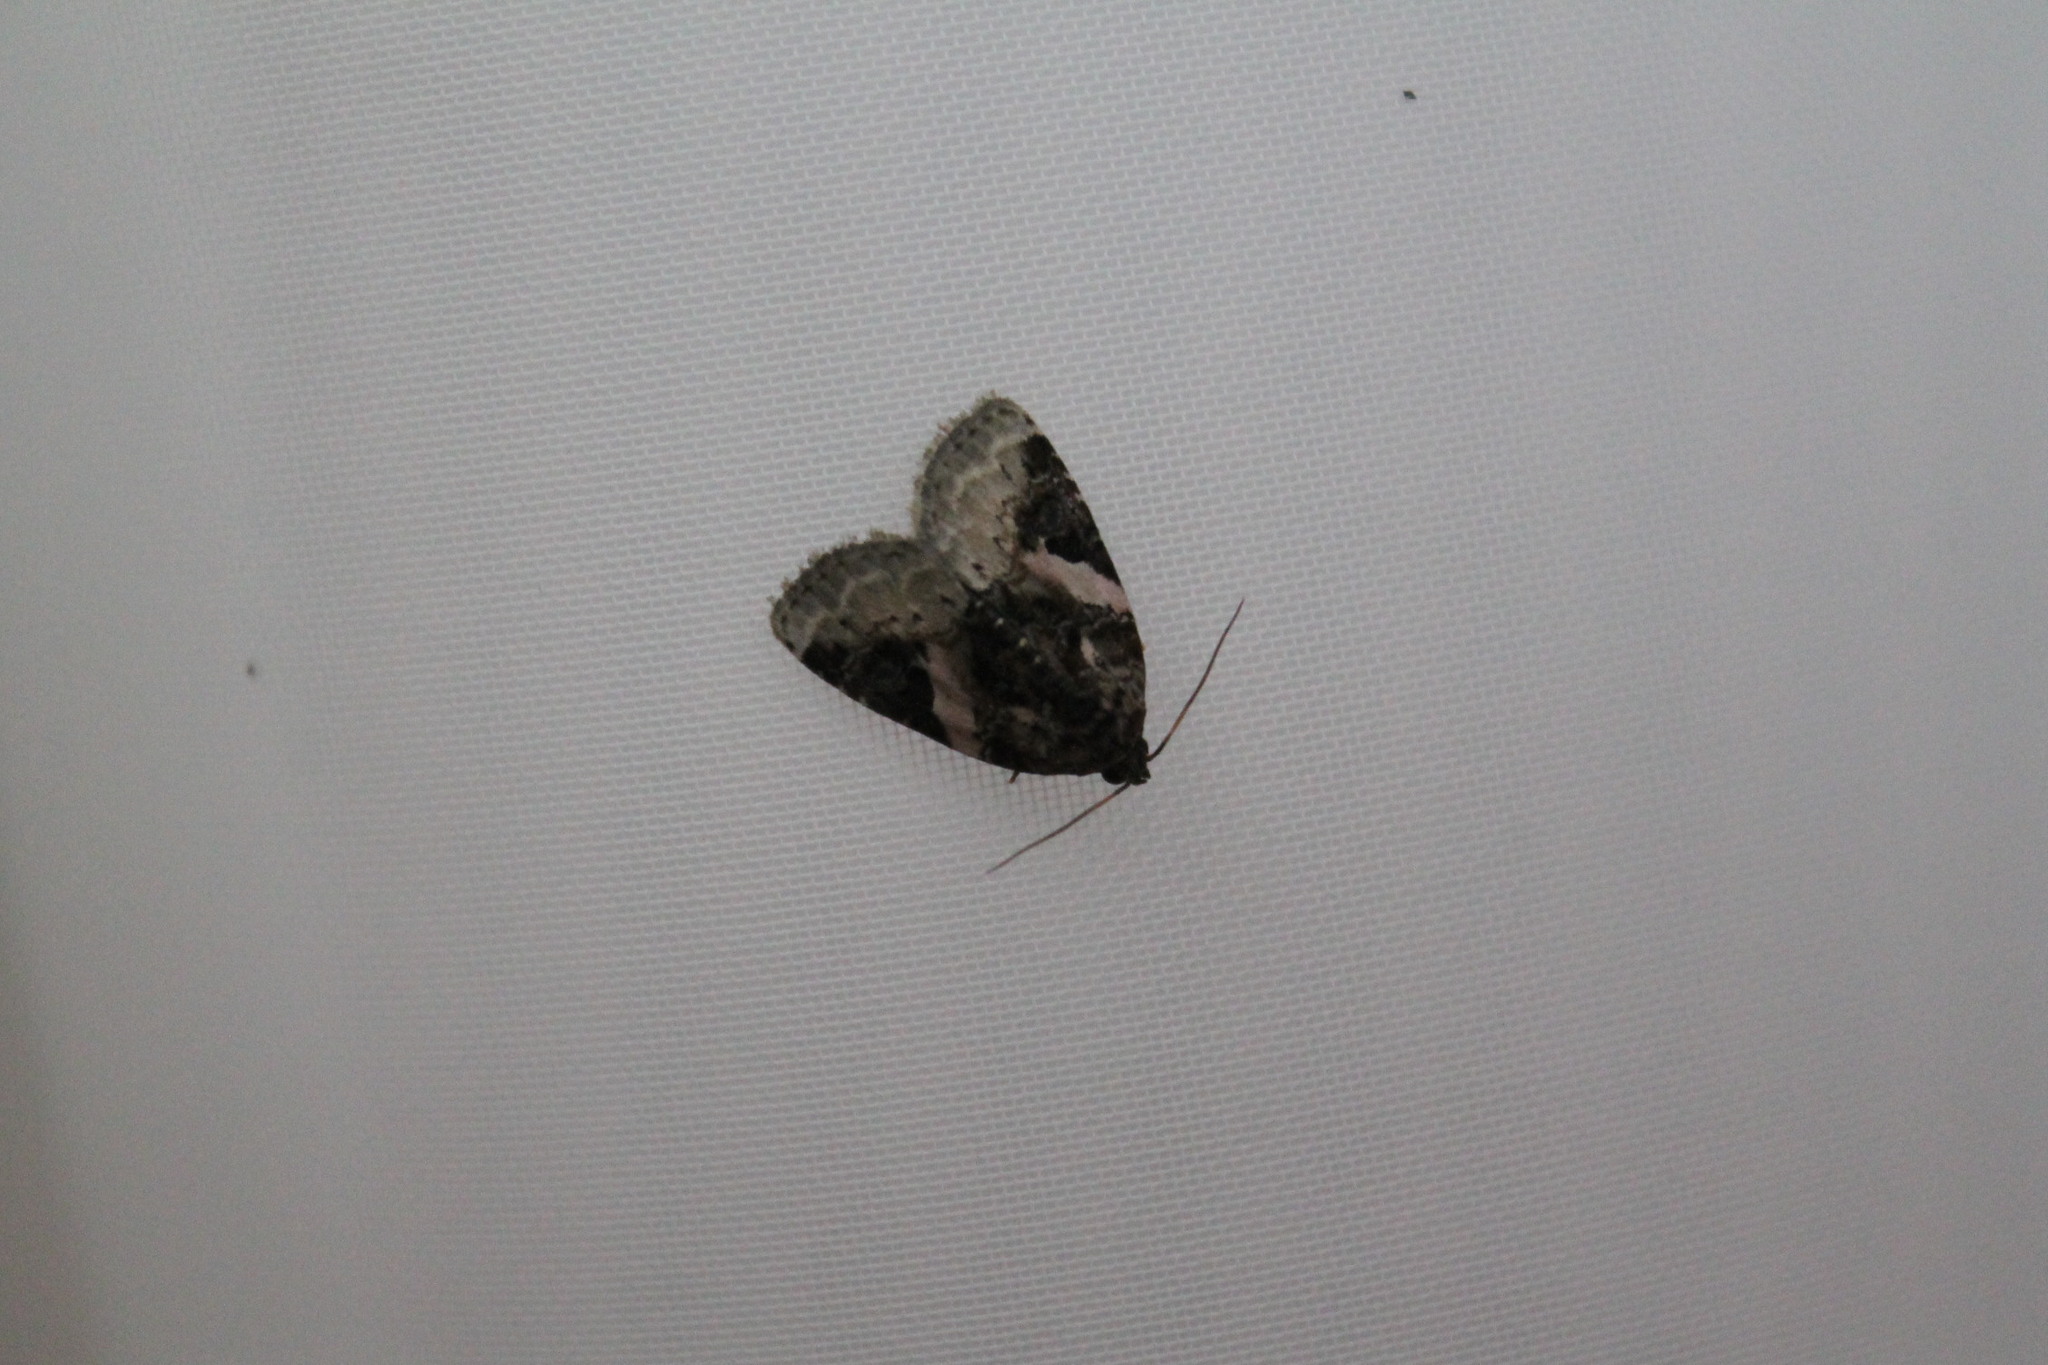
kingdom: Animalia
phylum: Arthropoda
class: Insecta
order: Lepidoptera
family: Noctuidae
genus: Pseudeustrotia
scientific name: Pseudeustrotia carneola
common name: Pink-barred lithacodia moth
